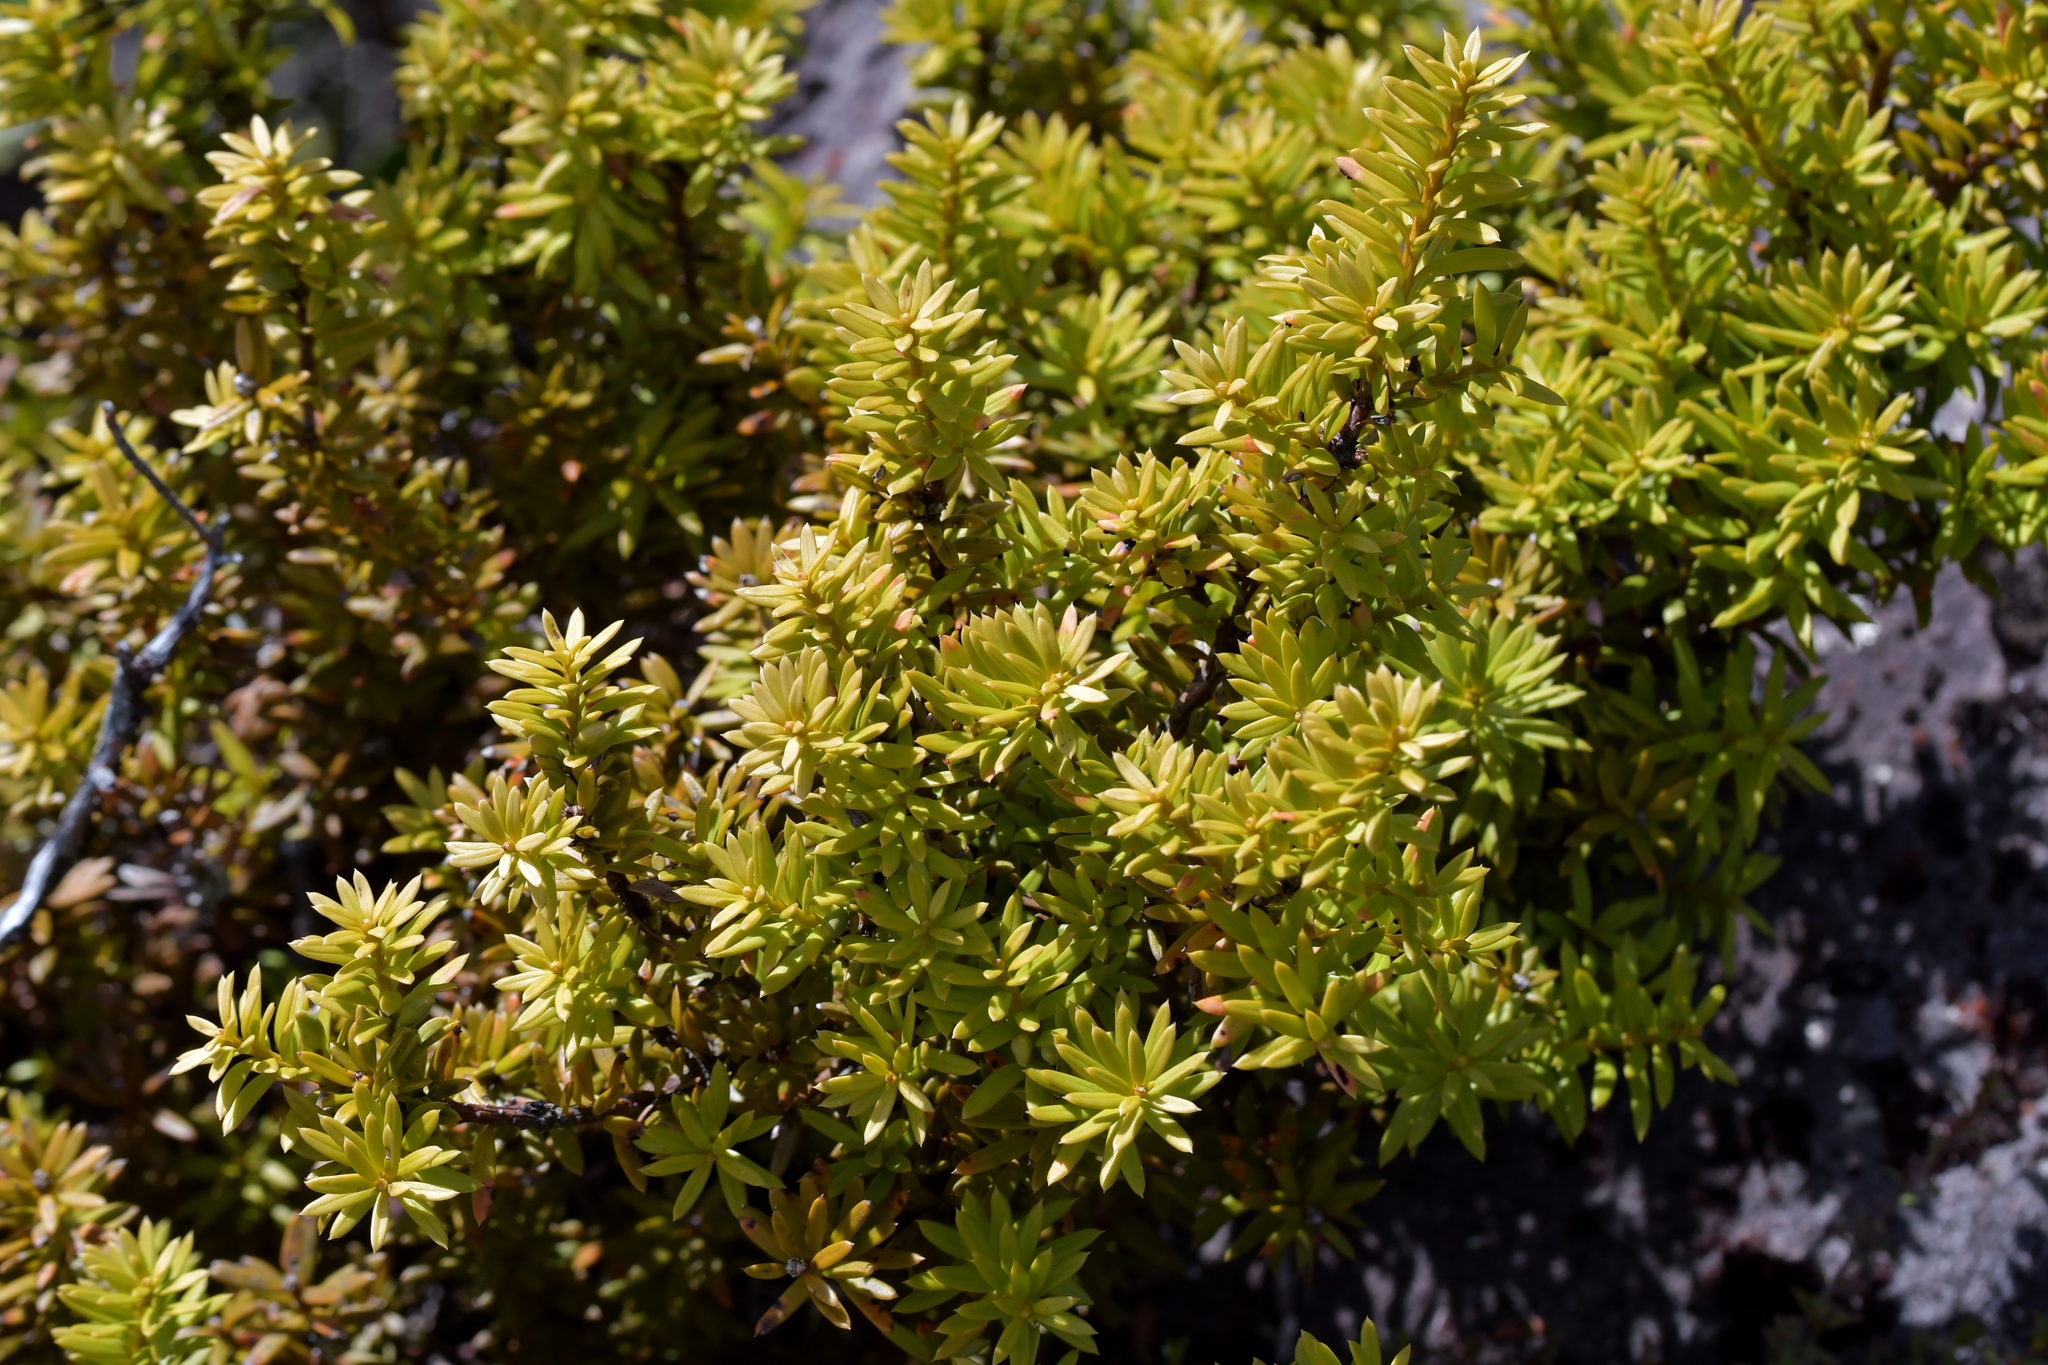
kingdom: Plantae
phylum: Tracheophyta
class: Pinopsida
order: Pinales
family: Podocarpaceae
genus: Podocarpus
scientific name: Podocarpus nivalis
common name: Alpine totara
